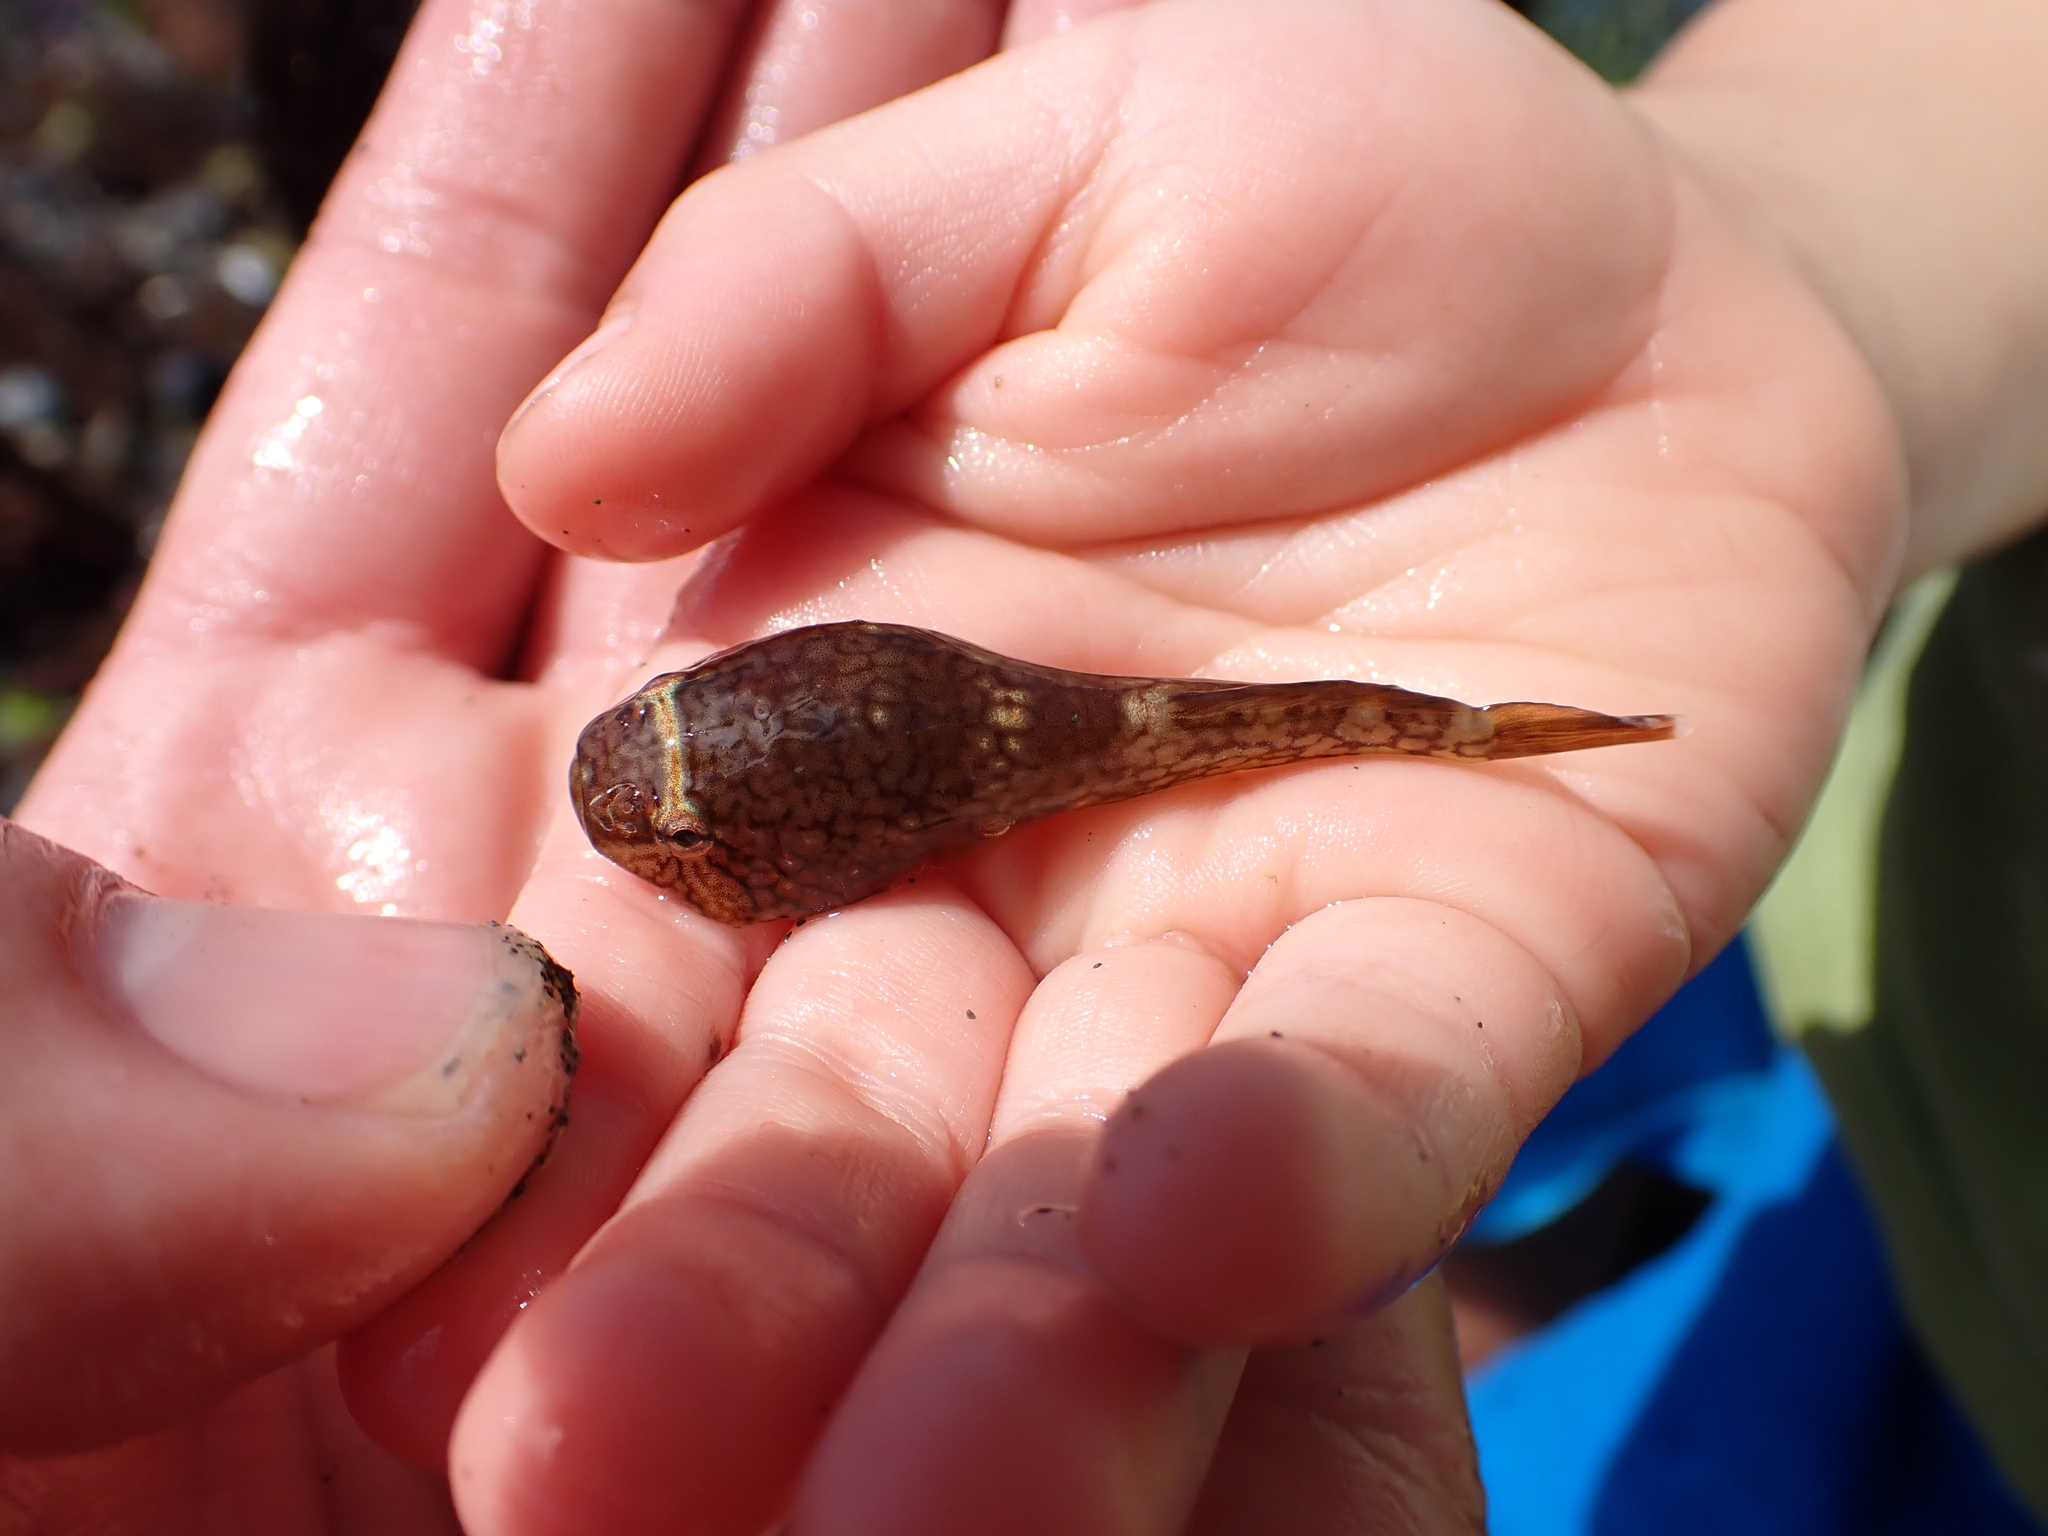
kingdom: Animalia
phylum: Chordata
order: Gobiesociformes
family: Gobiesocidae
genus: Gobiesox
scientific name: Gobiesox maeandricus
